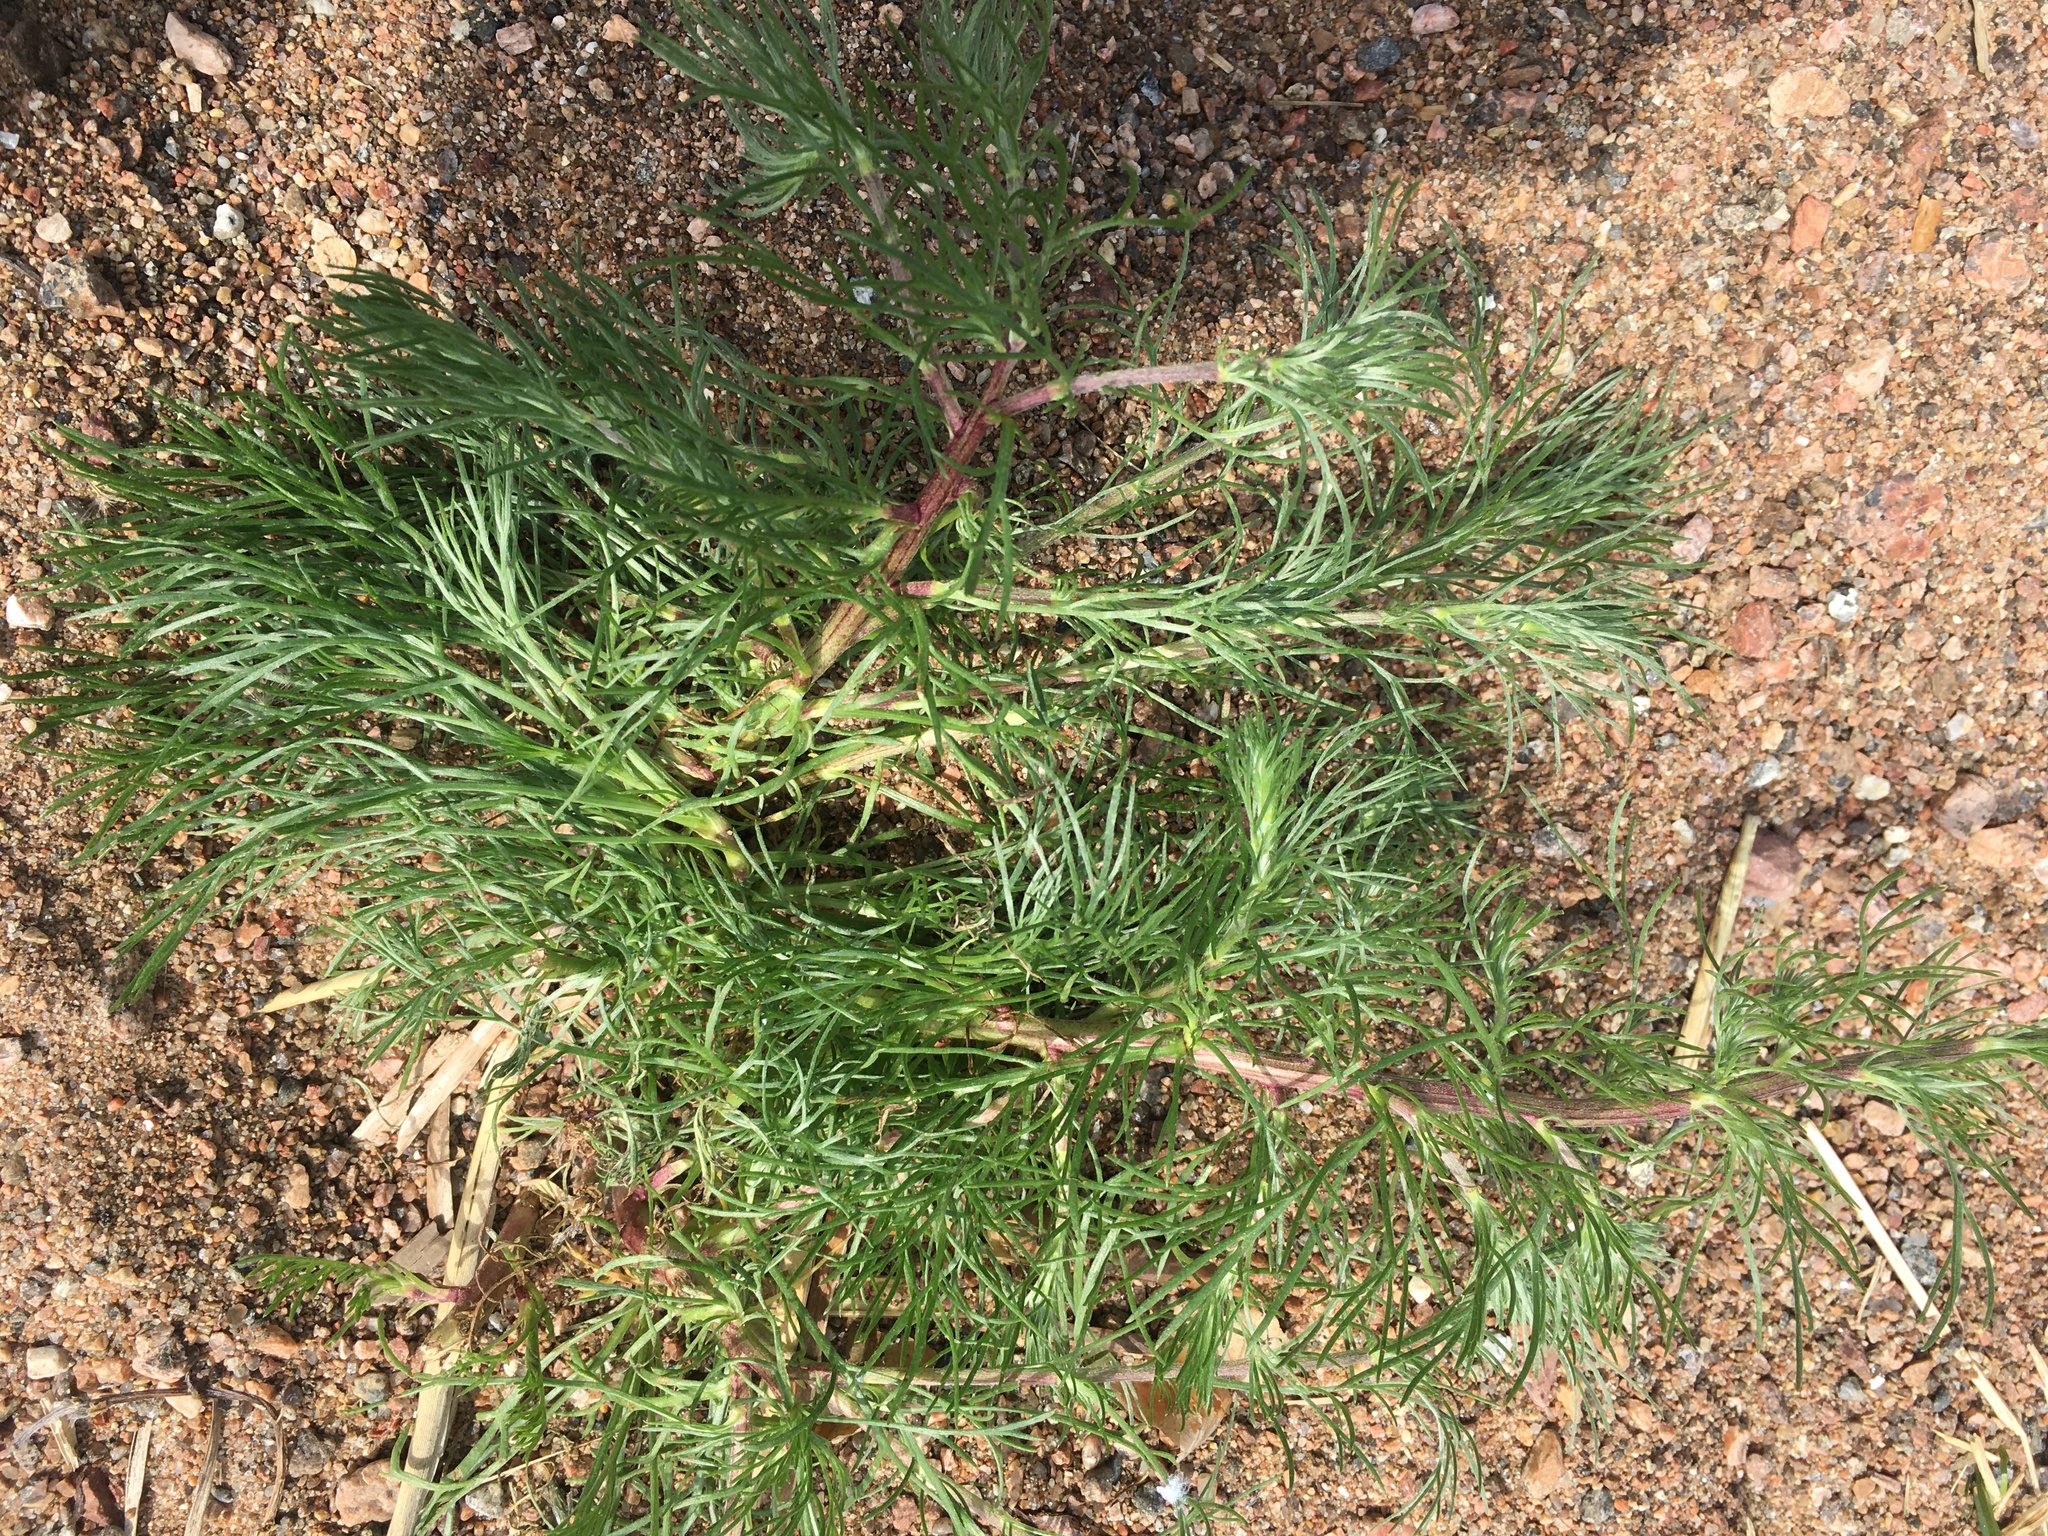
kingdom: Plantae
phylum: Tracheophyta
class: Magnoliopsida
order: Asterales
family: Asteraceae
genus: Artemisia
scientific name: Artemisia campestris
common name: Field wormwood
